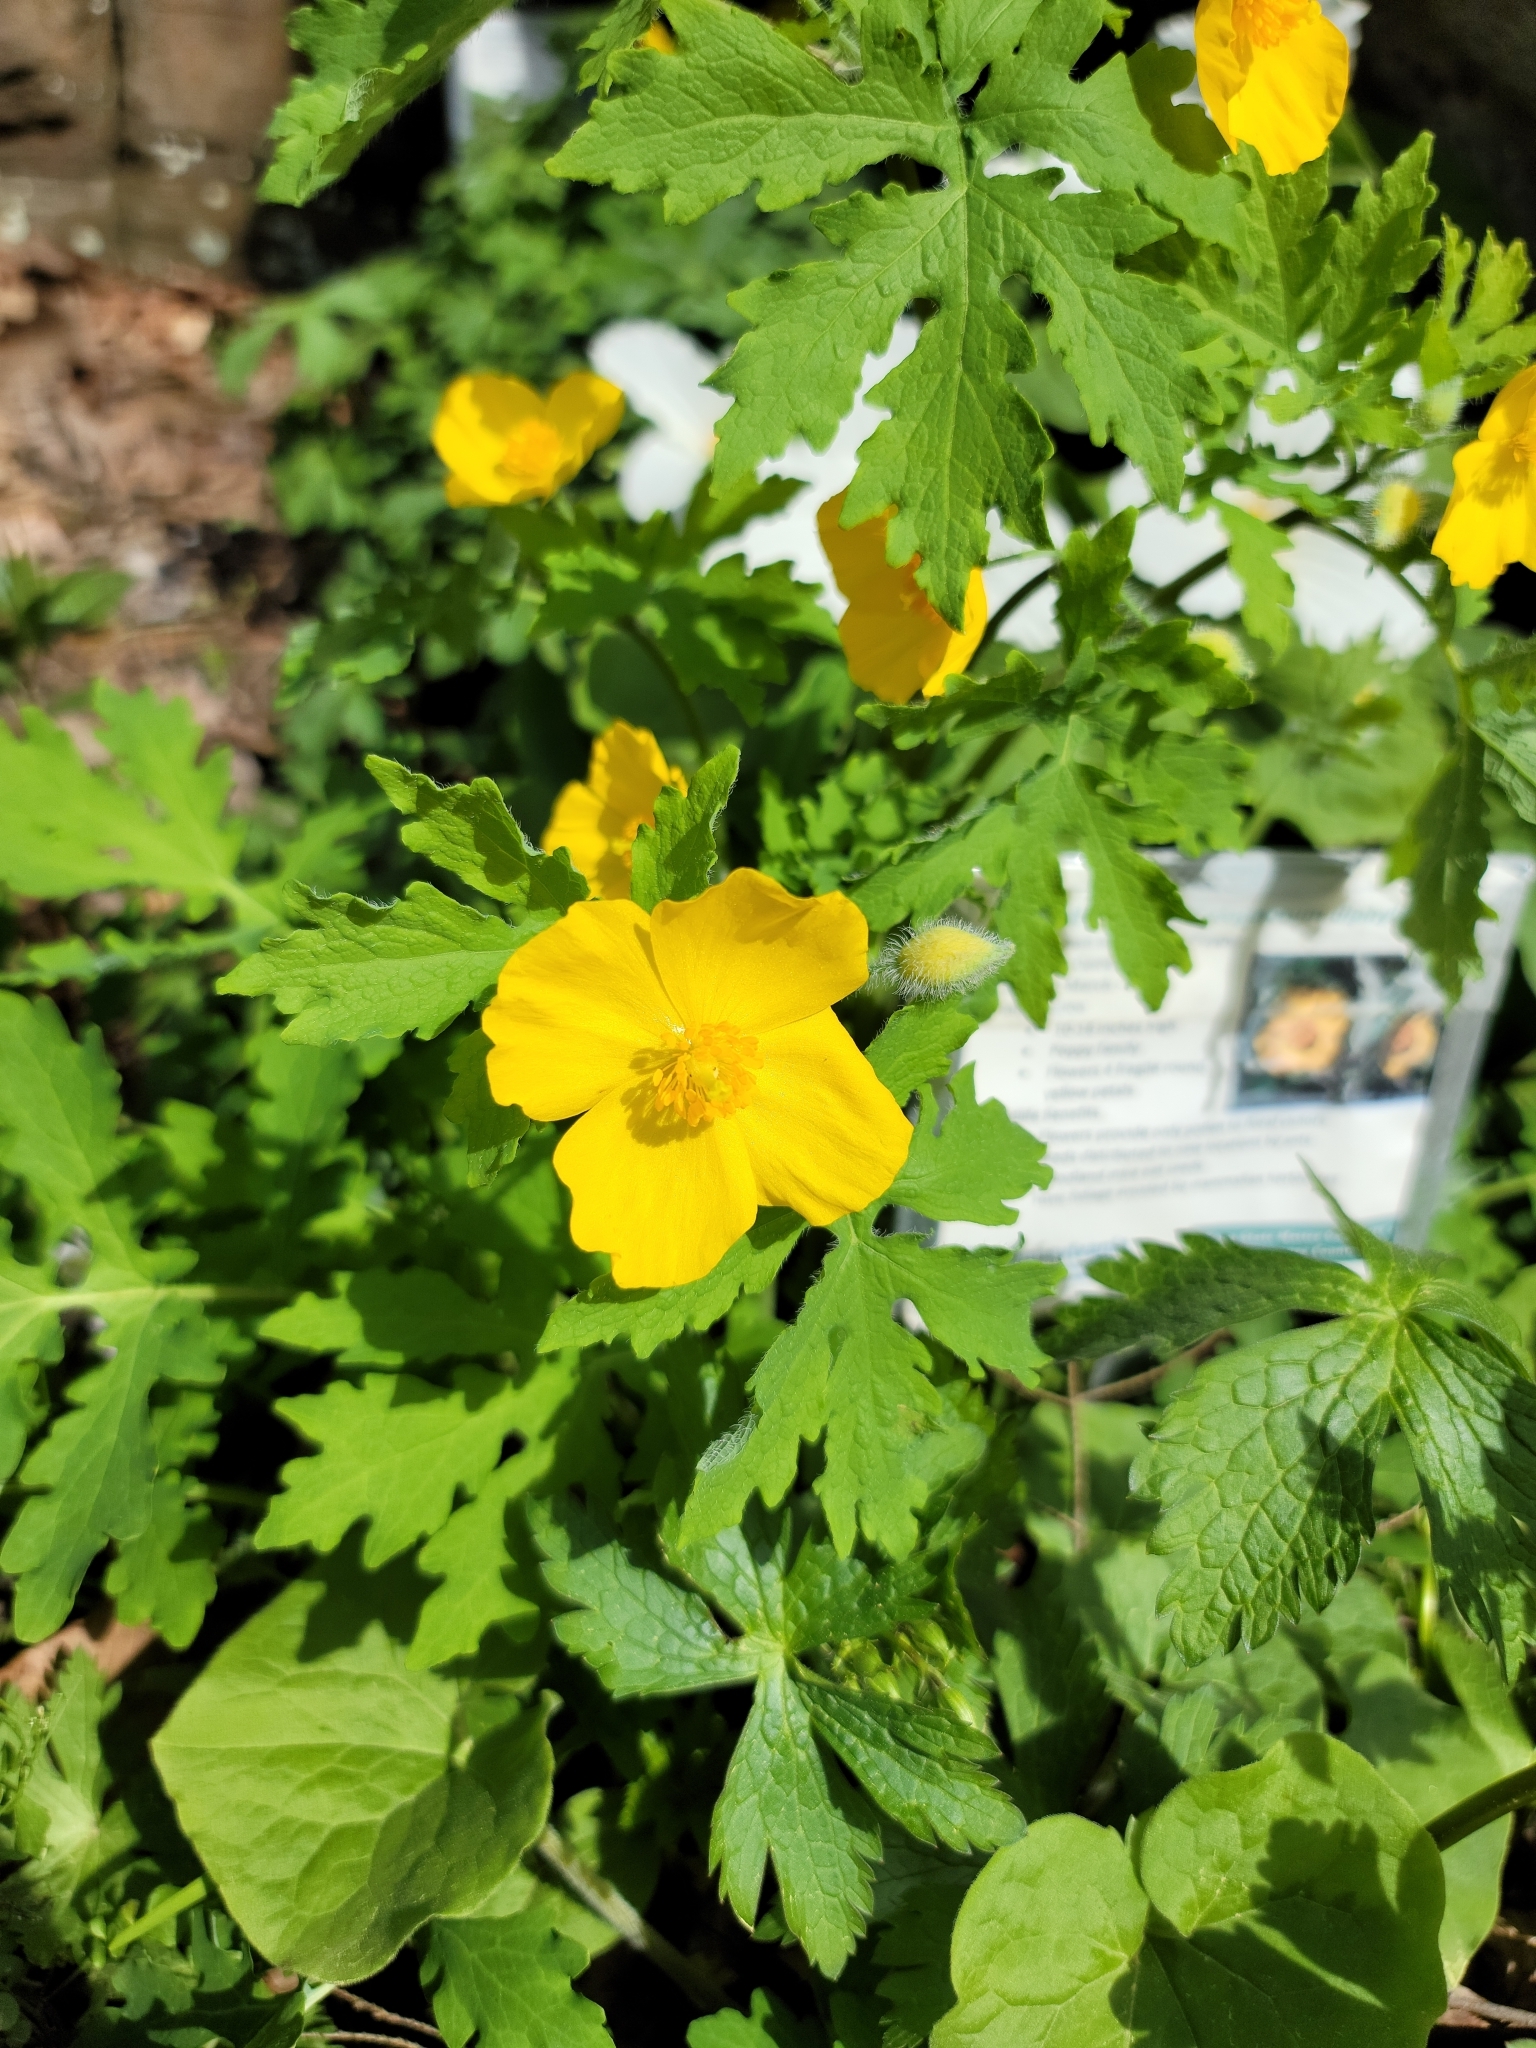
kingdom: Plantae
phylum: Tracheophyta
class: Magnoliopsida
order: Ranunculales
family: Papaveraceae
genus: Stylophorum
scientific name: Stylophorum diphyllum
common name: Celandine poppy
